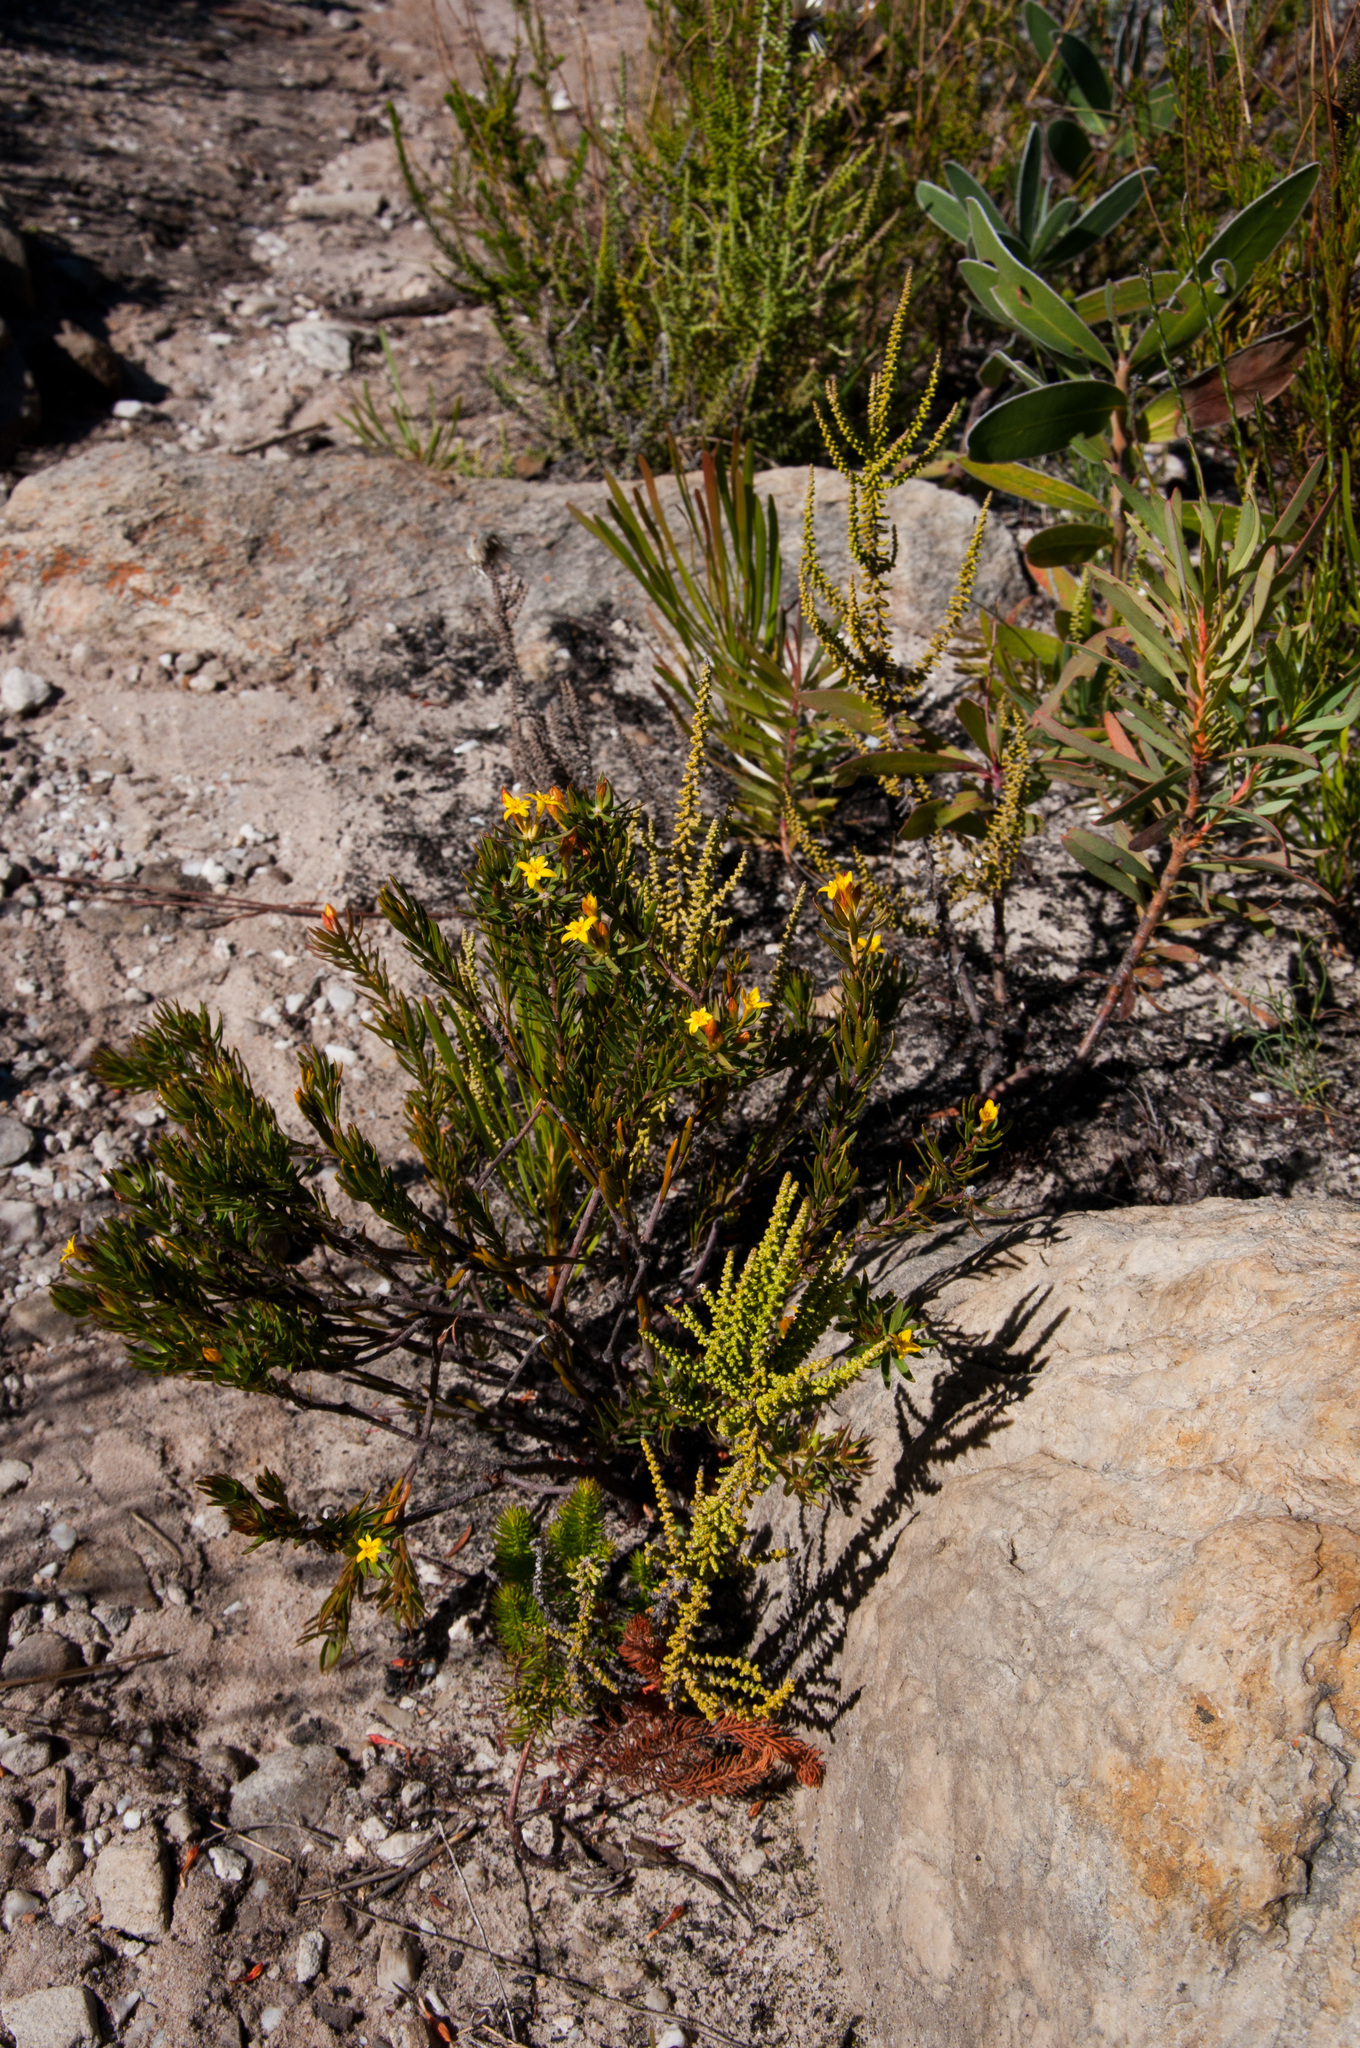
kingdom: Plantae
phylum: Tracheophyta
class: Magnoliopsida
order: Malvales
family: Thymelaeaceae
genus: Gnidia
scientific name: Gnidia juniperifolia
